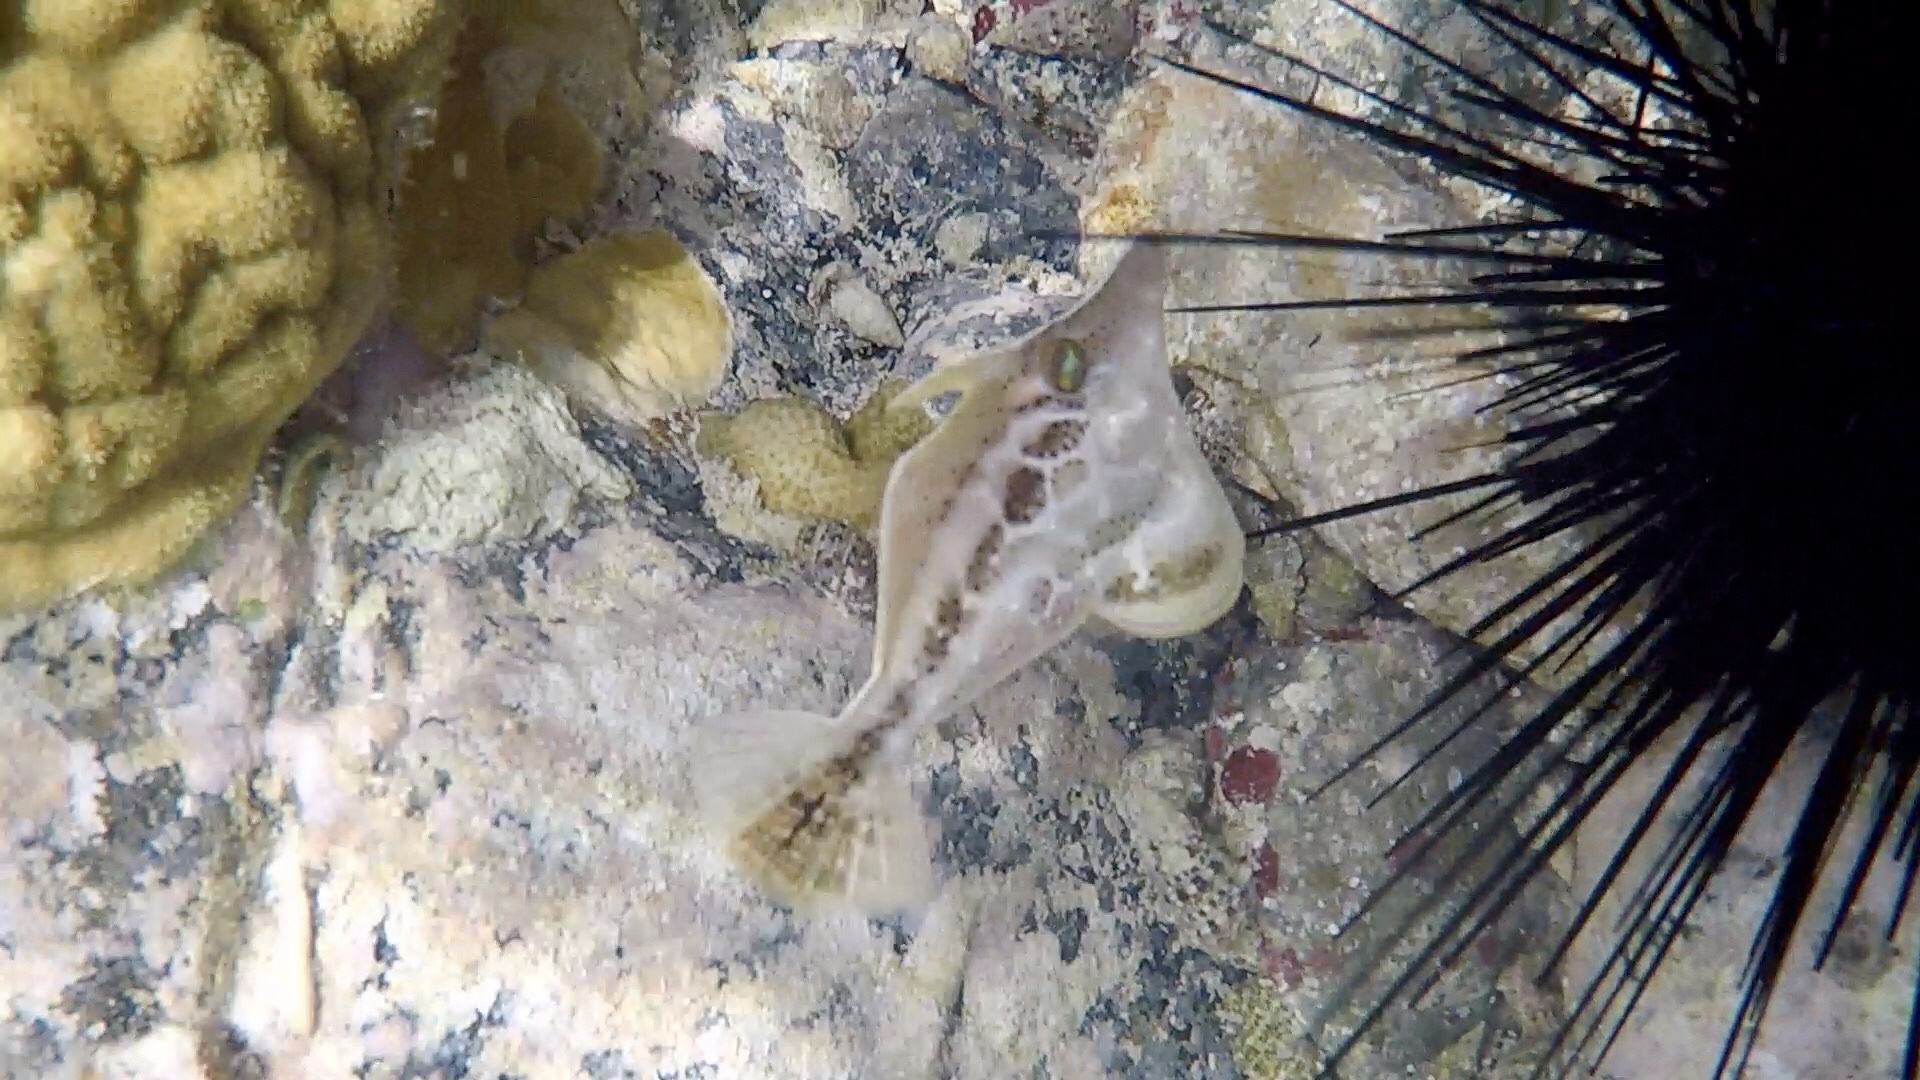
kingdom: Animalia
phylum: Chordata
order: Tetraodontiformes
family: Monacanthidae
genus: Monacanthus
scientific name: Monacanthus tuckeri
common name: Slender filefish
